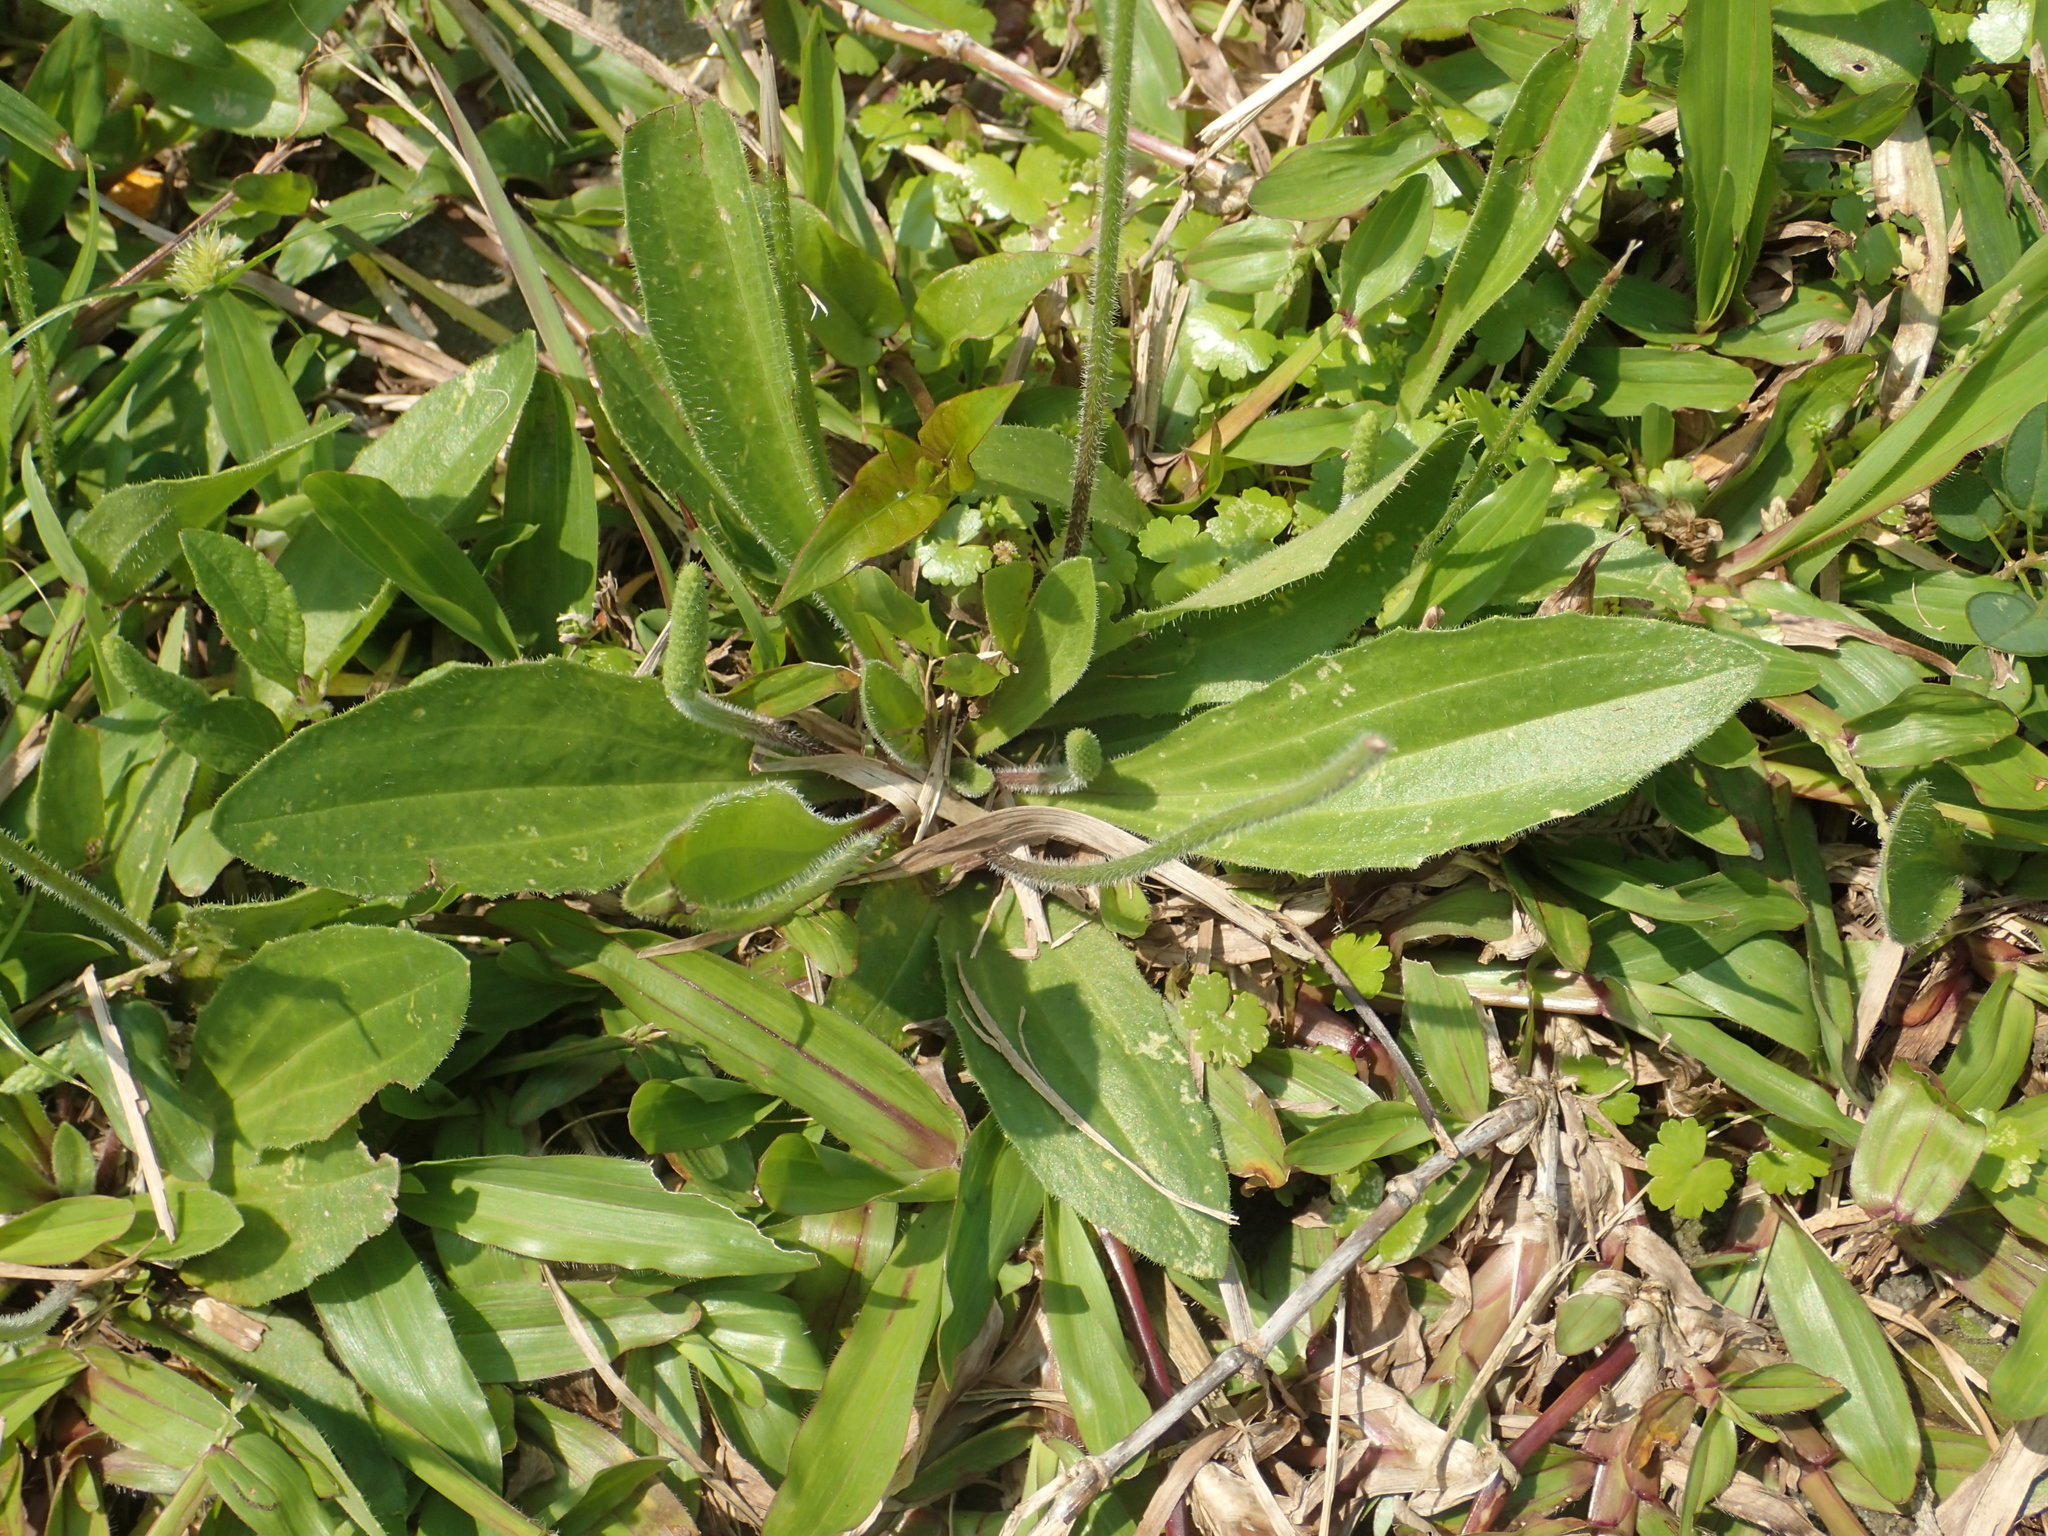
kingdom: Plantae
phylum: Tracheophyta
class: Magnoliopsida
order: Lamiales
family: Plantaginaceae
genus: Plantago
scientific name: Plantago virginica
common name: Hoary plantain
